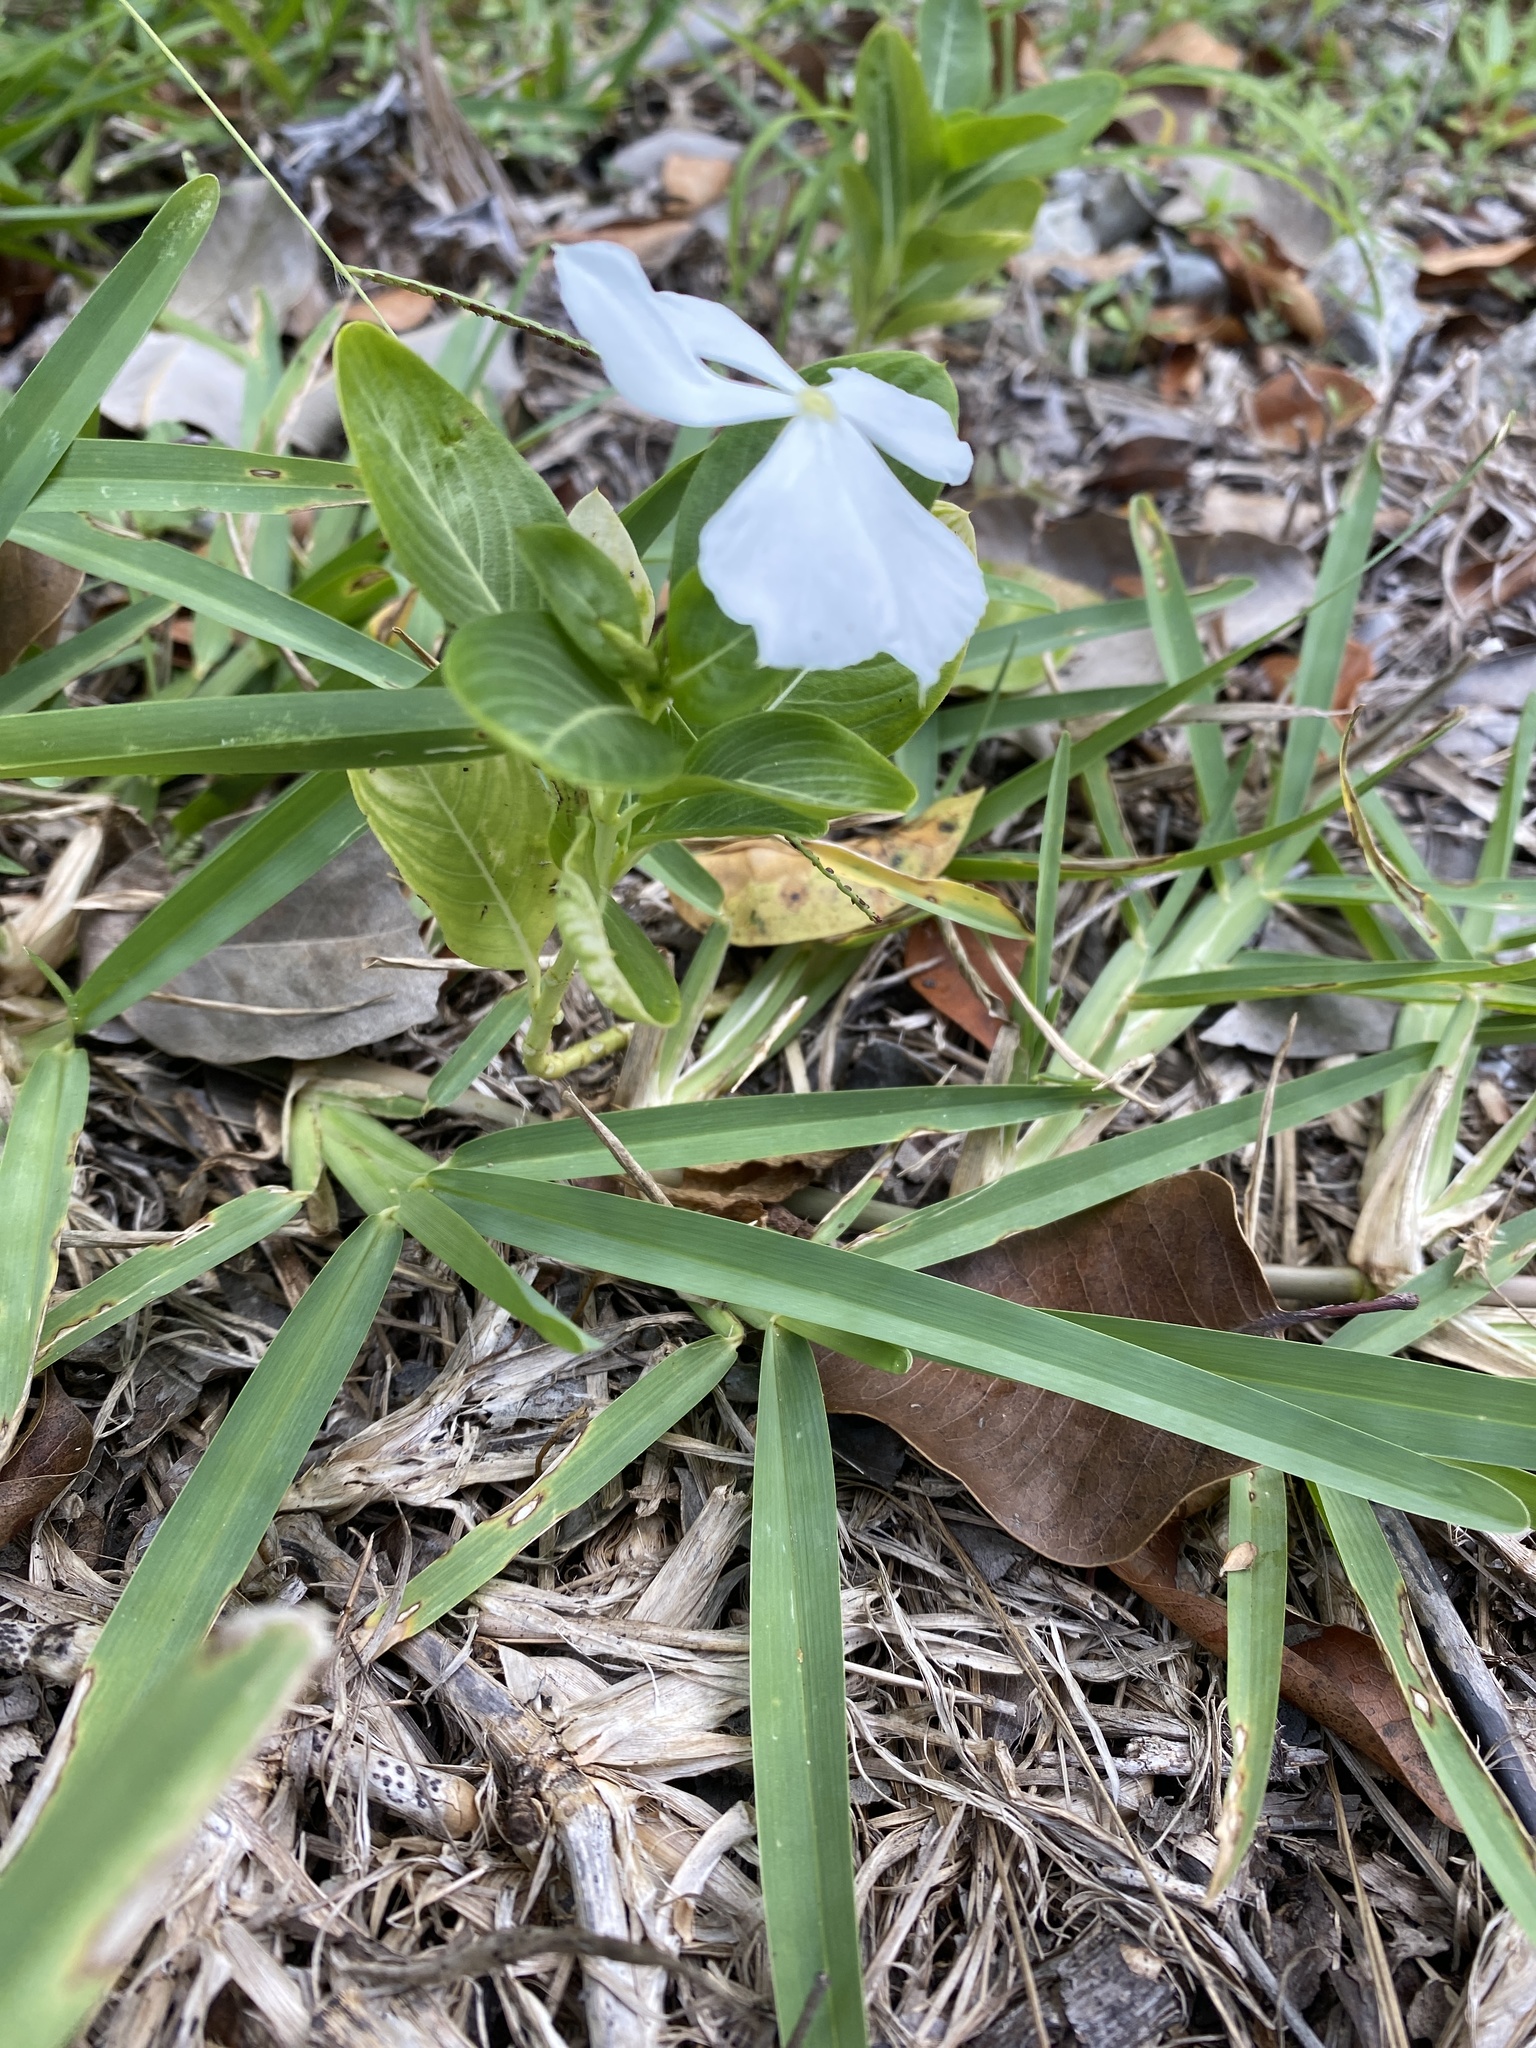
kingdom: Plantae
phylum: Tracheophyta
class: Magnoliopsida
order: Gentianales
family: Apocynaceae
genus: Catharanthus
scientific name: Catharanthus roseus
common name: Madagascar periwinkle
